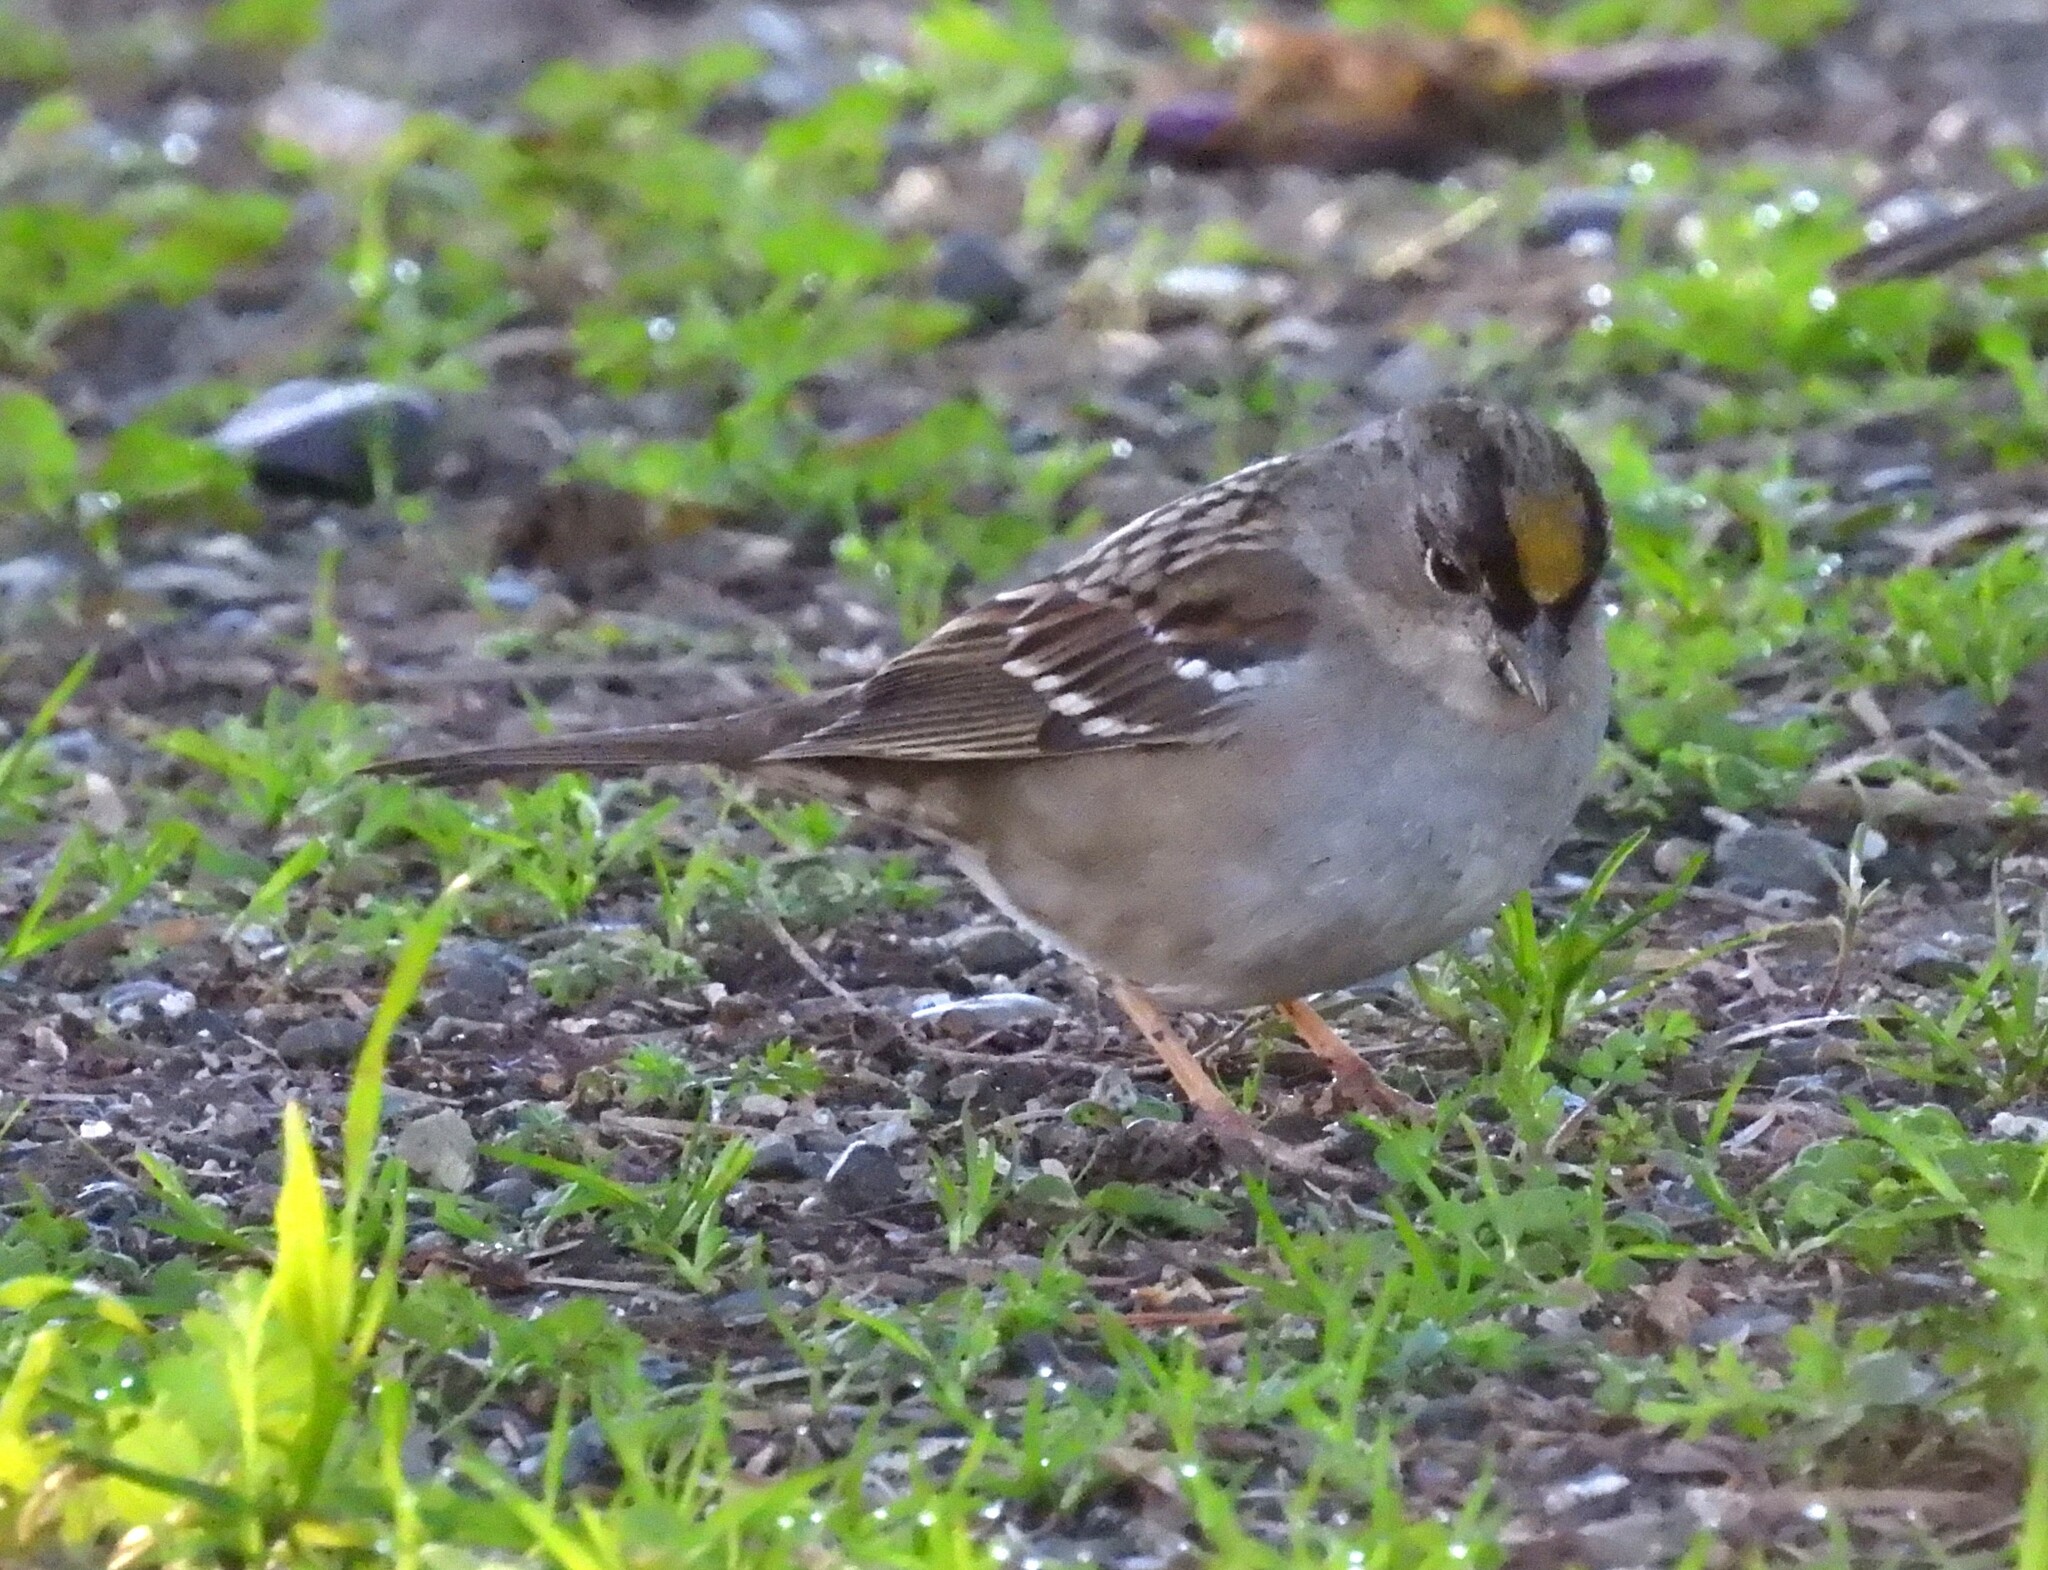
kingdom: Animalia
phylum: Chordata
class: Aves
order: Passeriformes
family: Passerellidae
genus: Zonotrichia
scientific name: Zonotrichia atricapilla
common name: Golden-crowned sparrow
